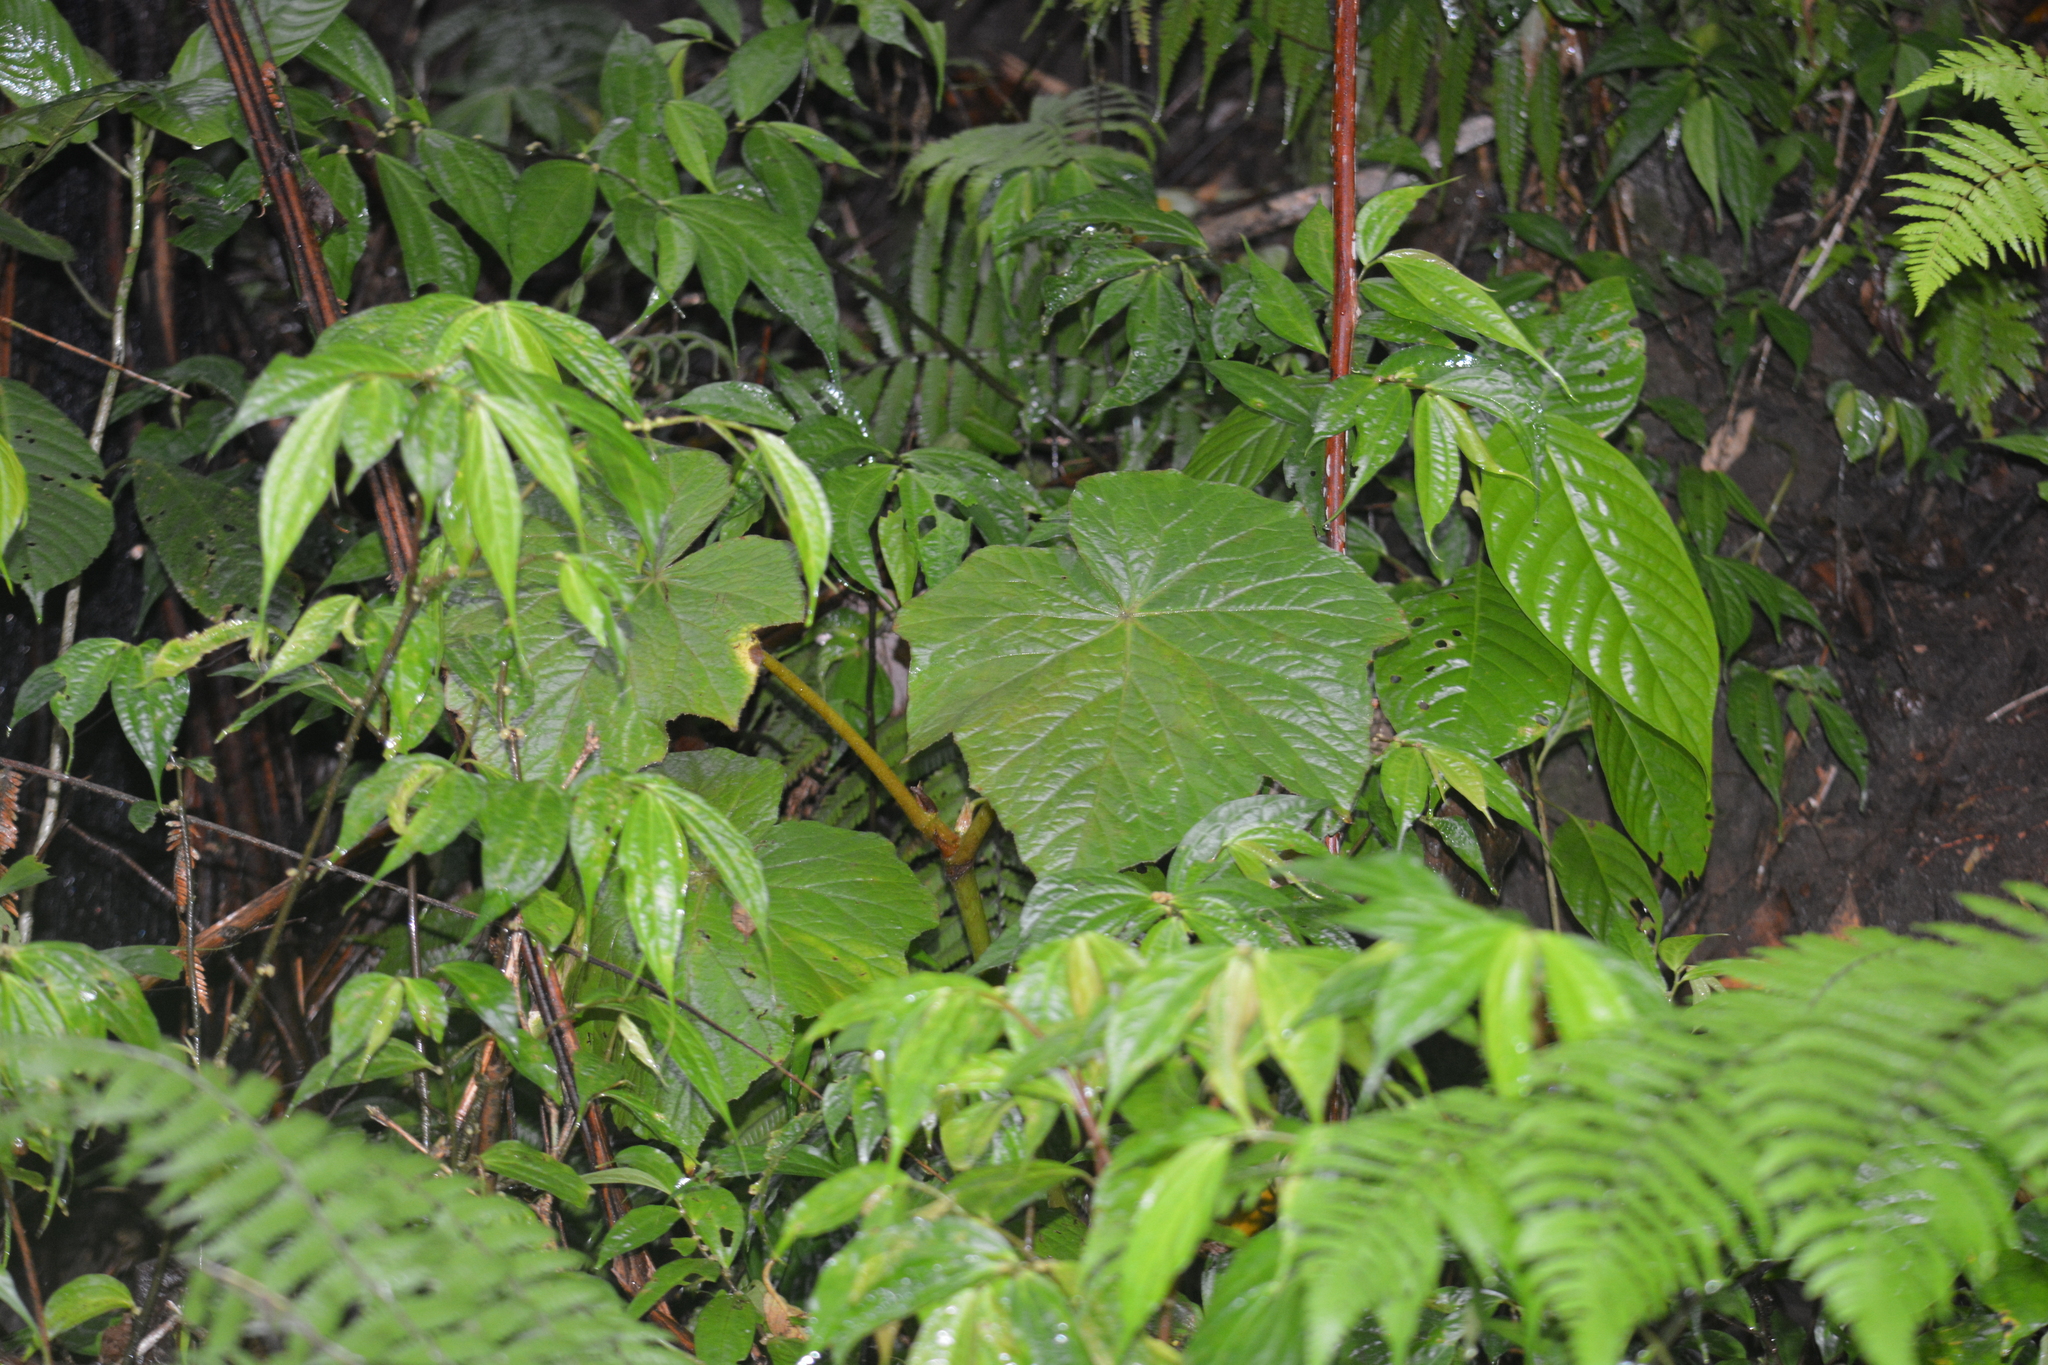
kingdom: Plantae
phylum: Tracheophyta
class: Magnoliopsida
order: Cucurbitales
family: Begoniaceae
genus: Begonia
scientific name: Begonia multangula
